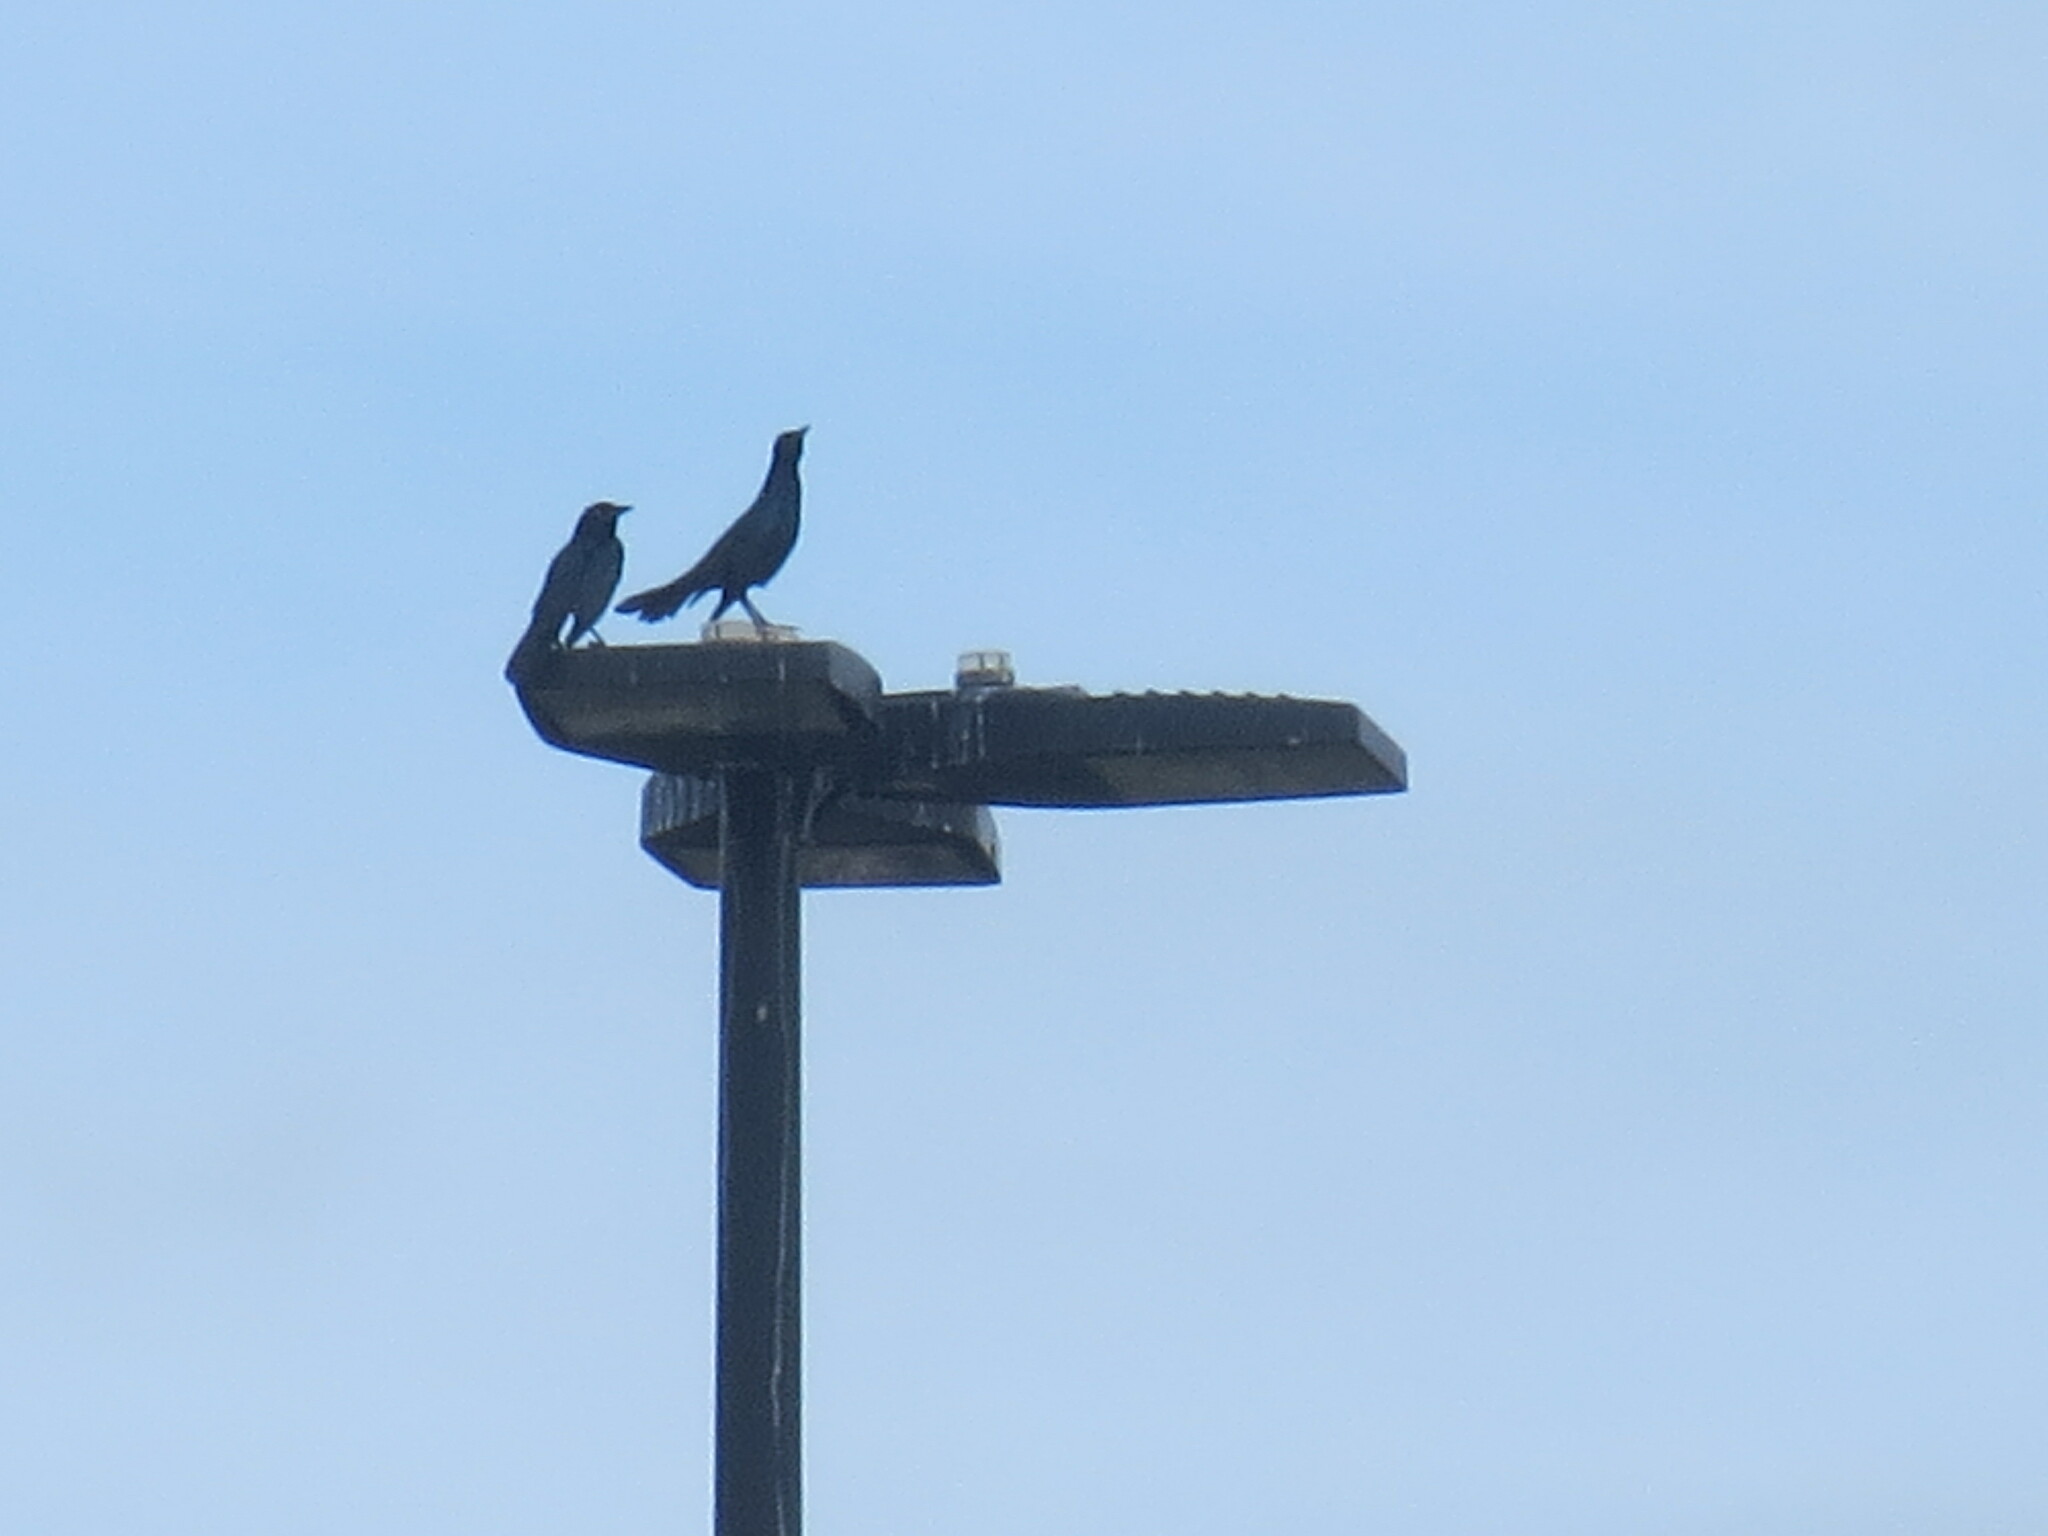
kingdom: Animalia
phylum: Chordata
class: Aves
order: Passeriformes
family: Icteridae
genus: Quiscalus
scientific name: Quiscalus major
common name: Boat-tailed grackle
